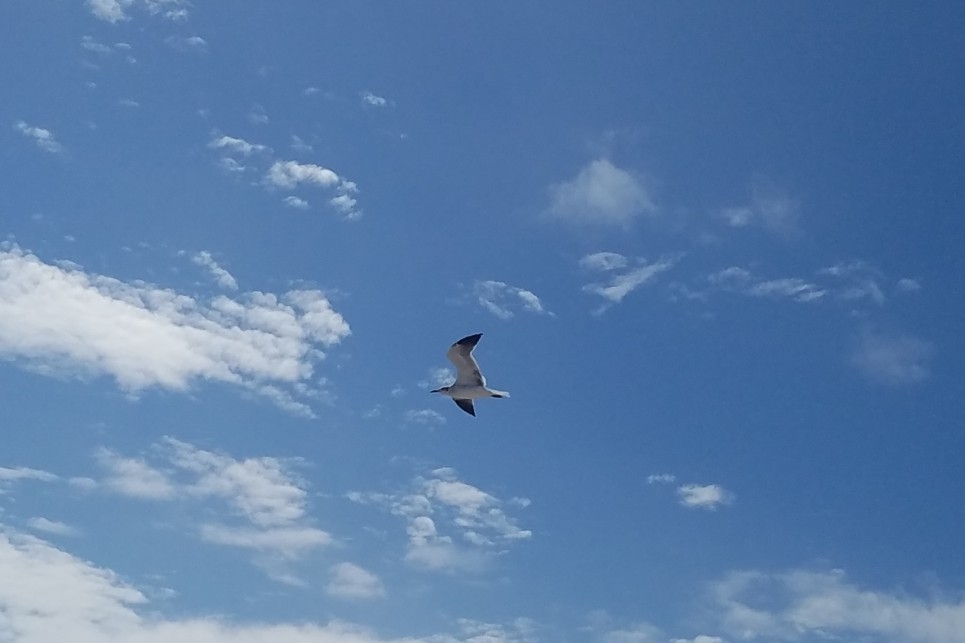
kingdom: Animalia
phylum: Chordata
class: Aves
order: Charadriiformes
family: Laridae
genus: Leucophaeus
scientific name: Leucophaeus atricilla
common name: Laughing gull
